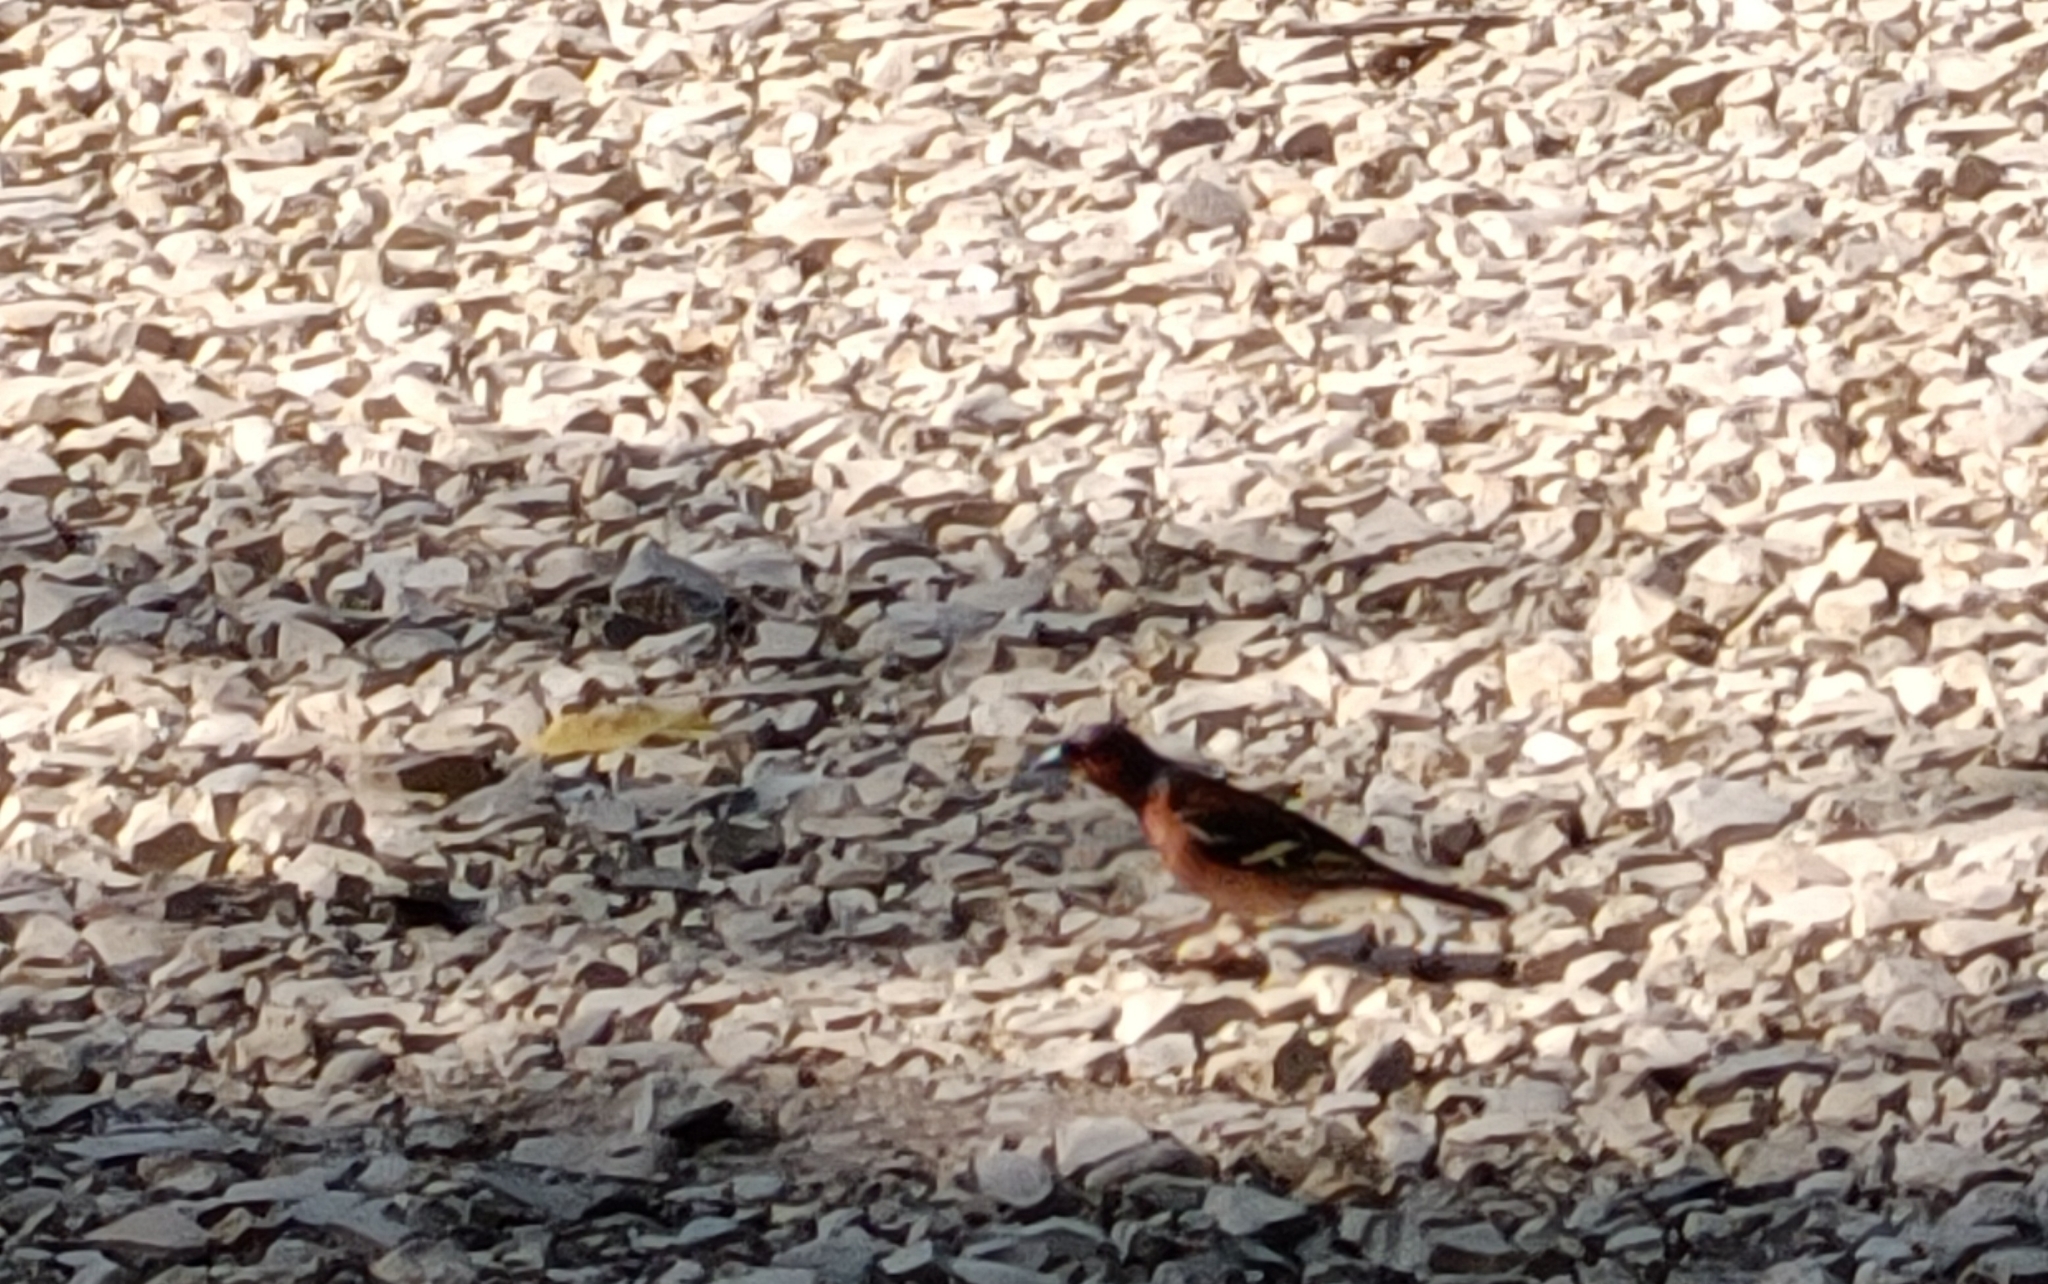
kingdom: Animalia
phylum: Chordata
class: Aves
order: Passeriformes
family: Fringillidae
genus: Fringilla
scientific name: Fringilla coelebs
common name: Common chaffinch
